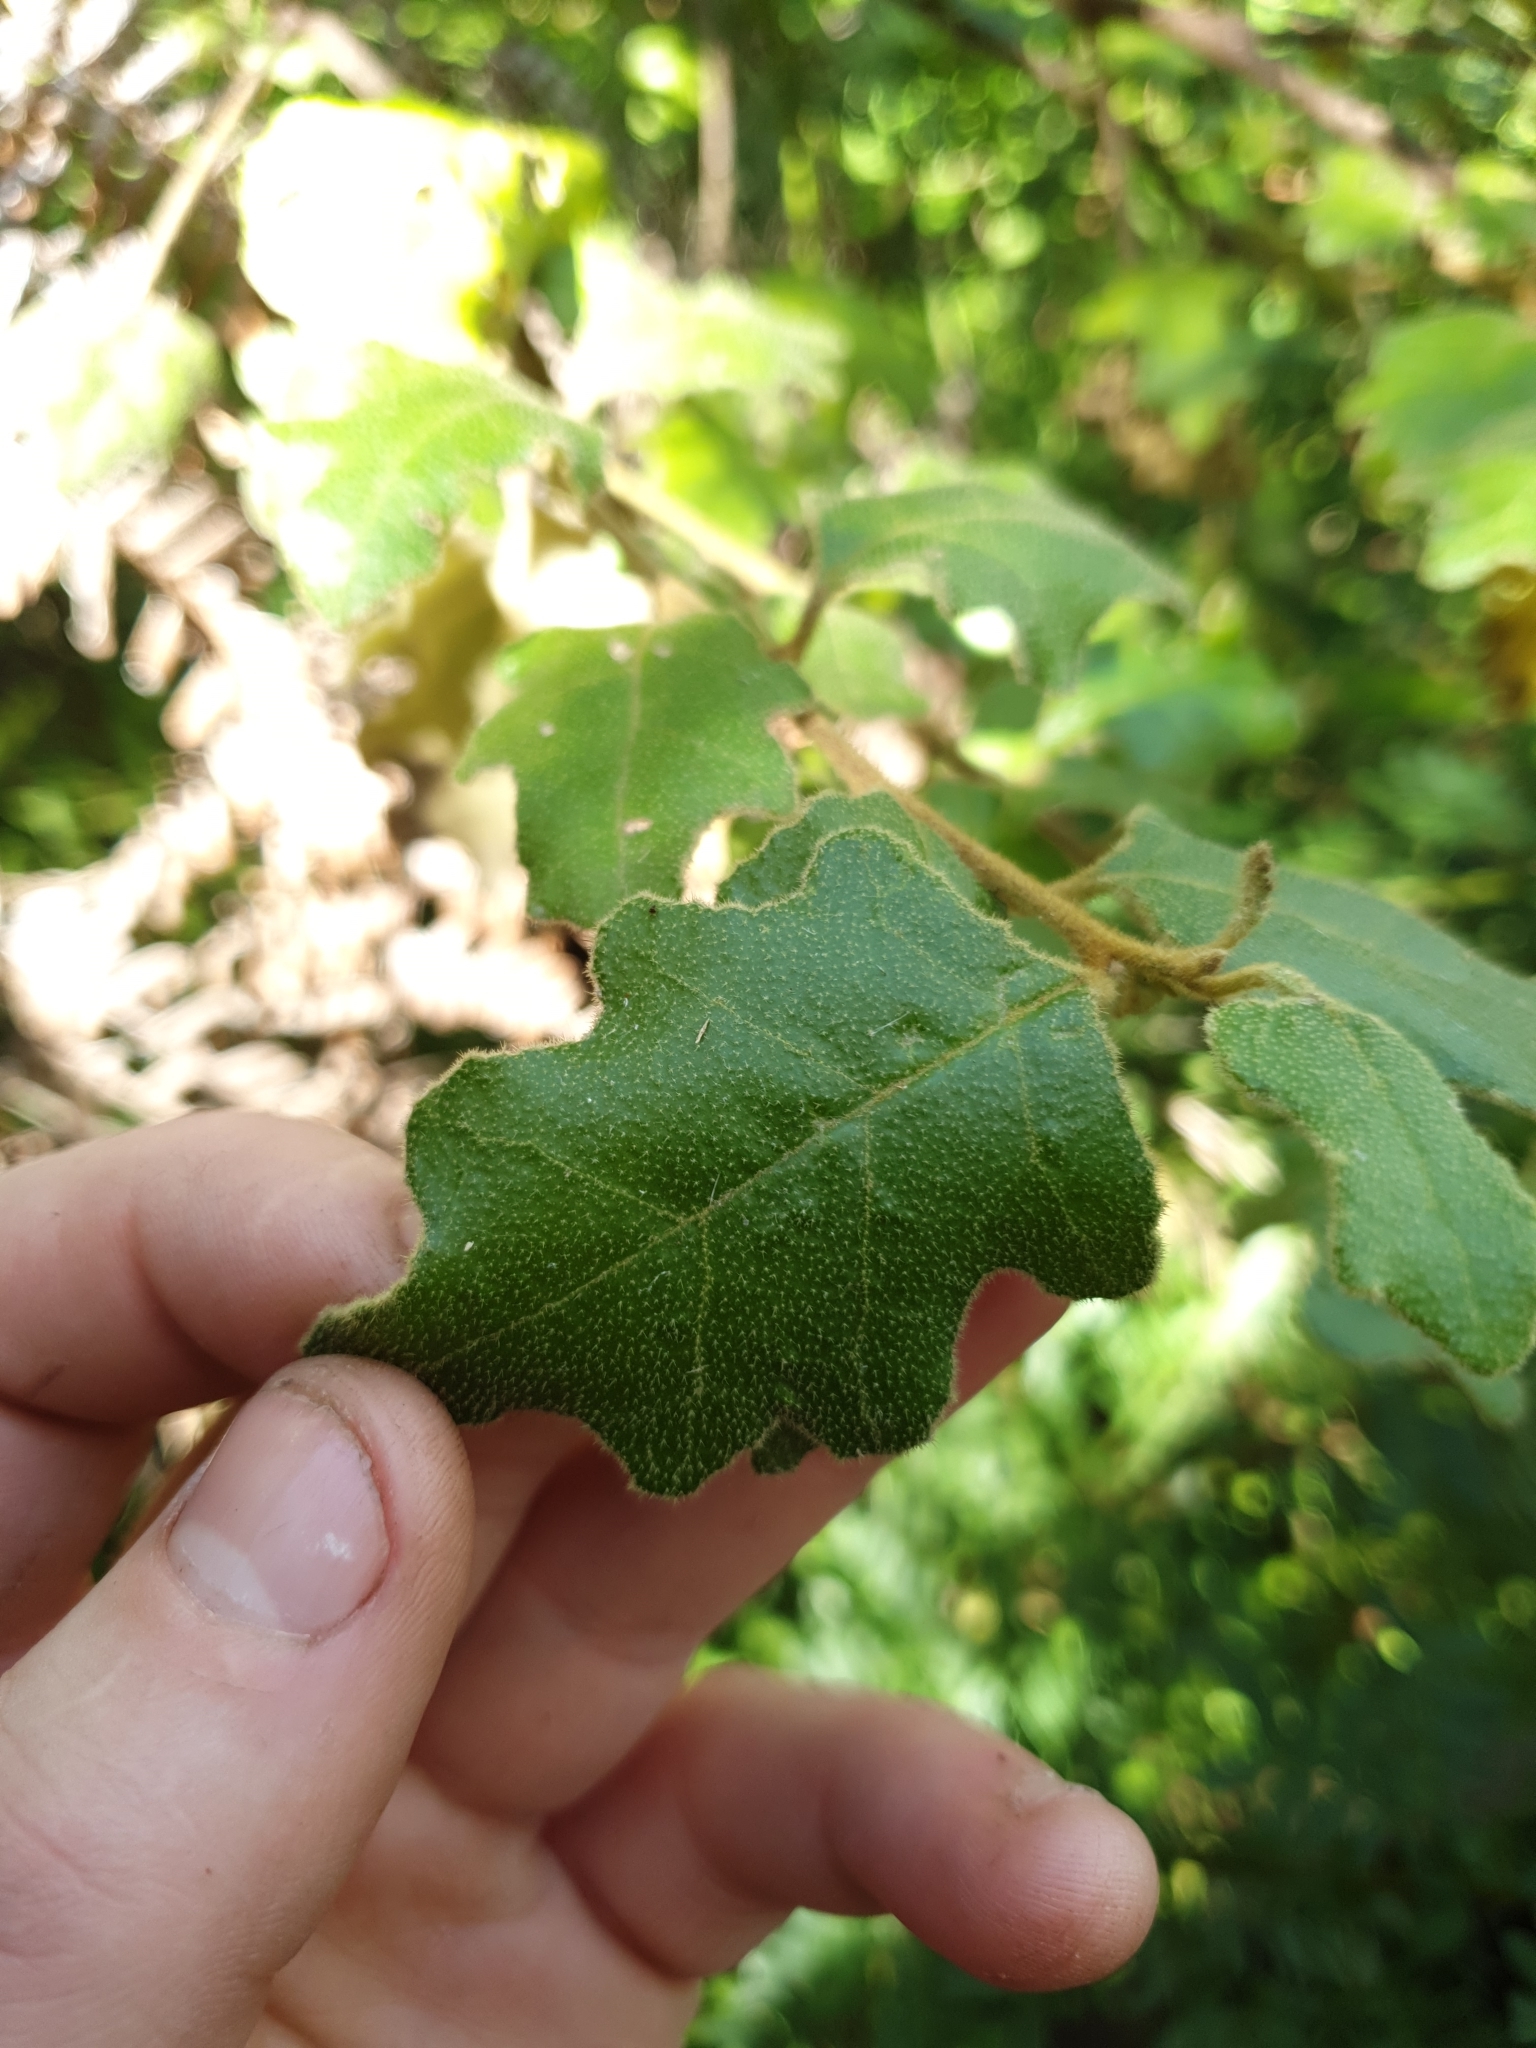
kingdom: Plantae
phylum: Tracheophyta
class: Magnoliopsida
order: Sapindales
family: Rutaceae
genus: Chorilaena
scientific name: Chorilaena quercifolia
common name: Wild hop
